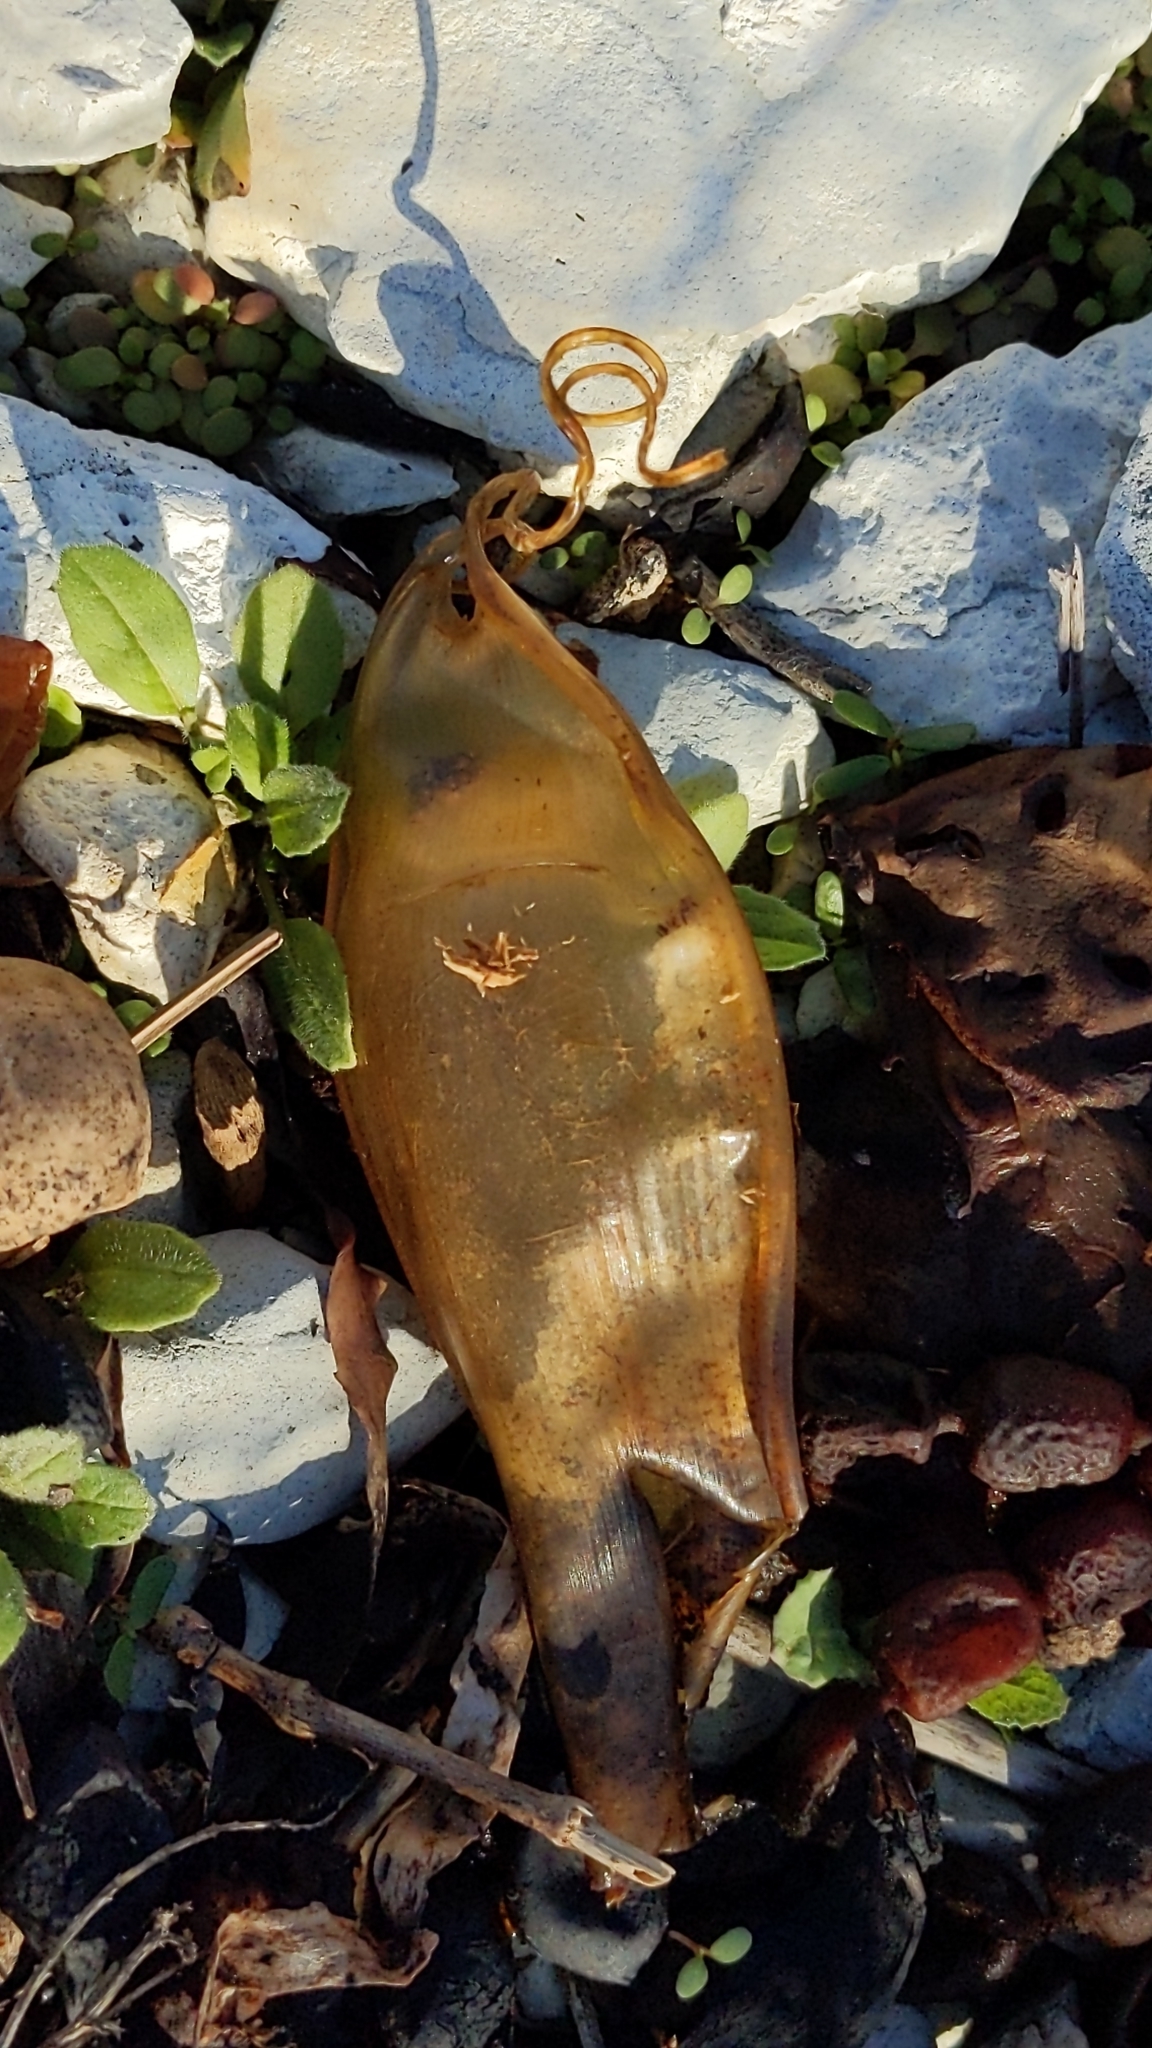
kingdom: Animalia
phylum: Chordata
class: Elasmobranchii
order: Carcharhiniformes
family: Scyliorhinidae
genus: Cephaloscyllium
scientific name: Cephaloscyllium isabellum
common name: Carpet shark
